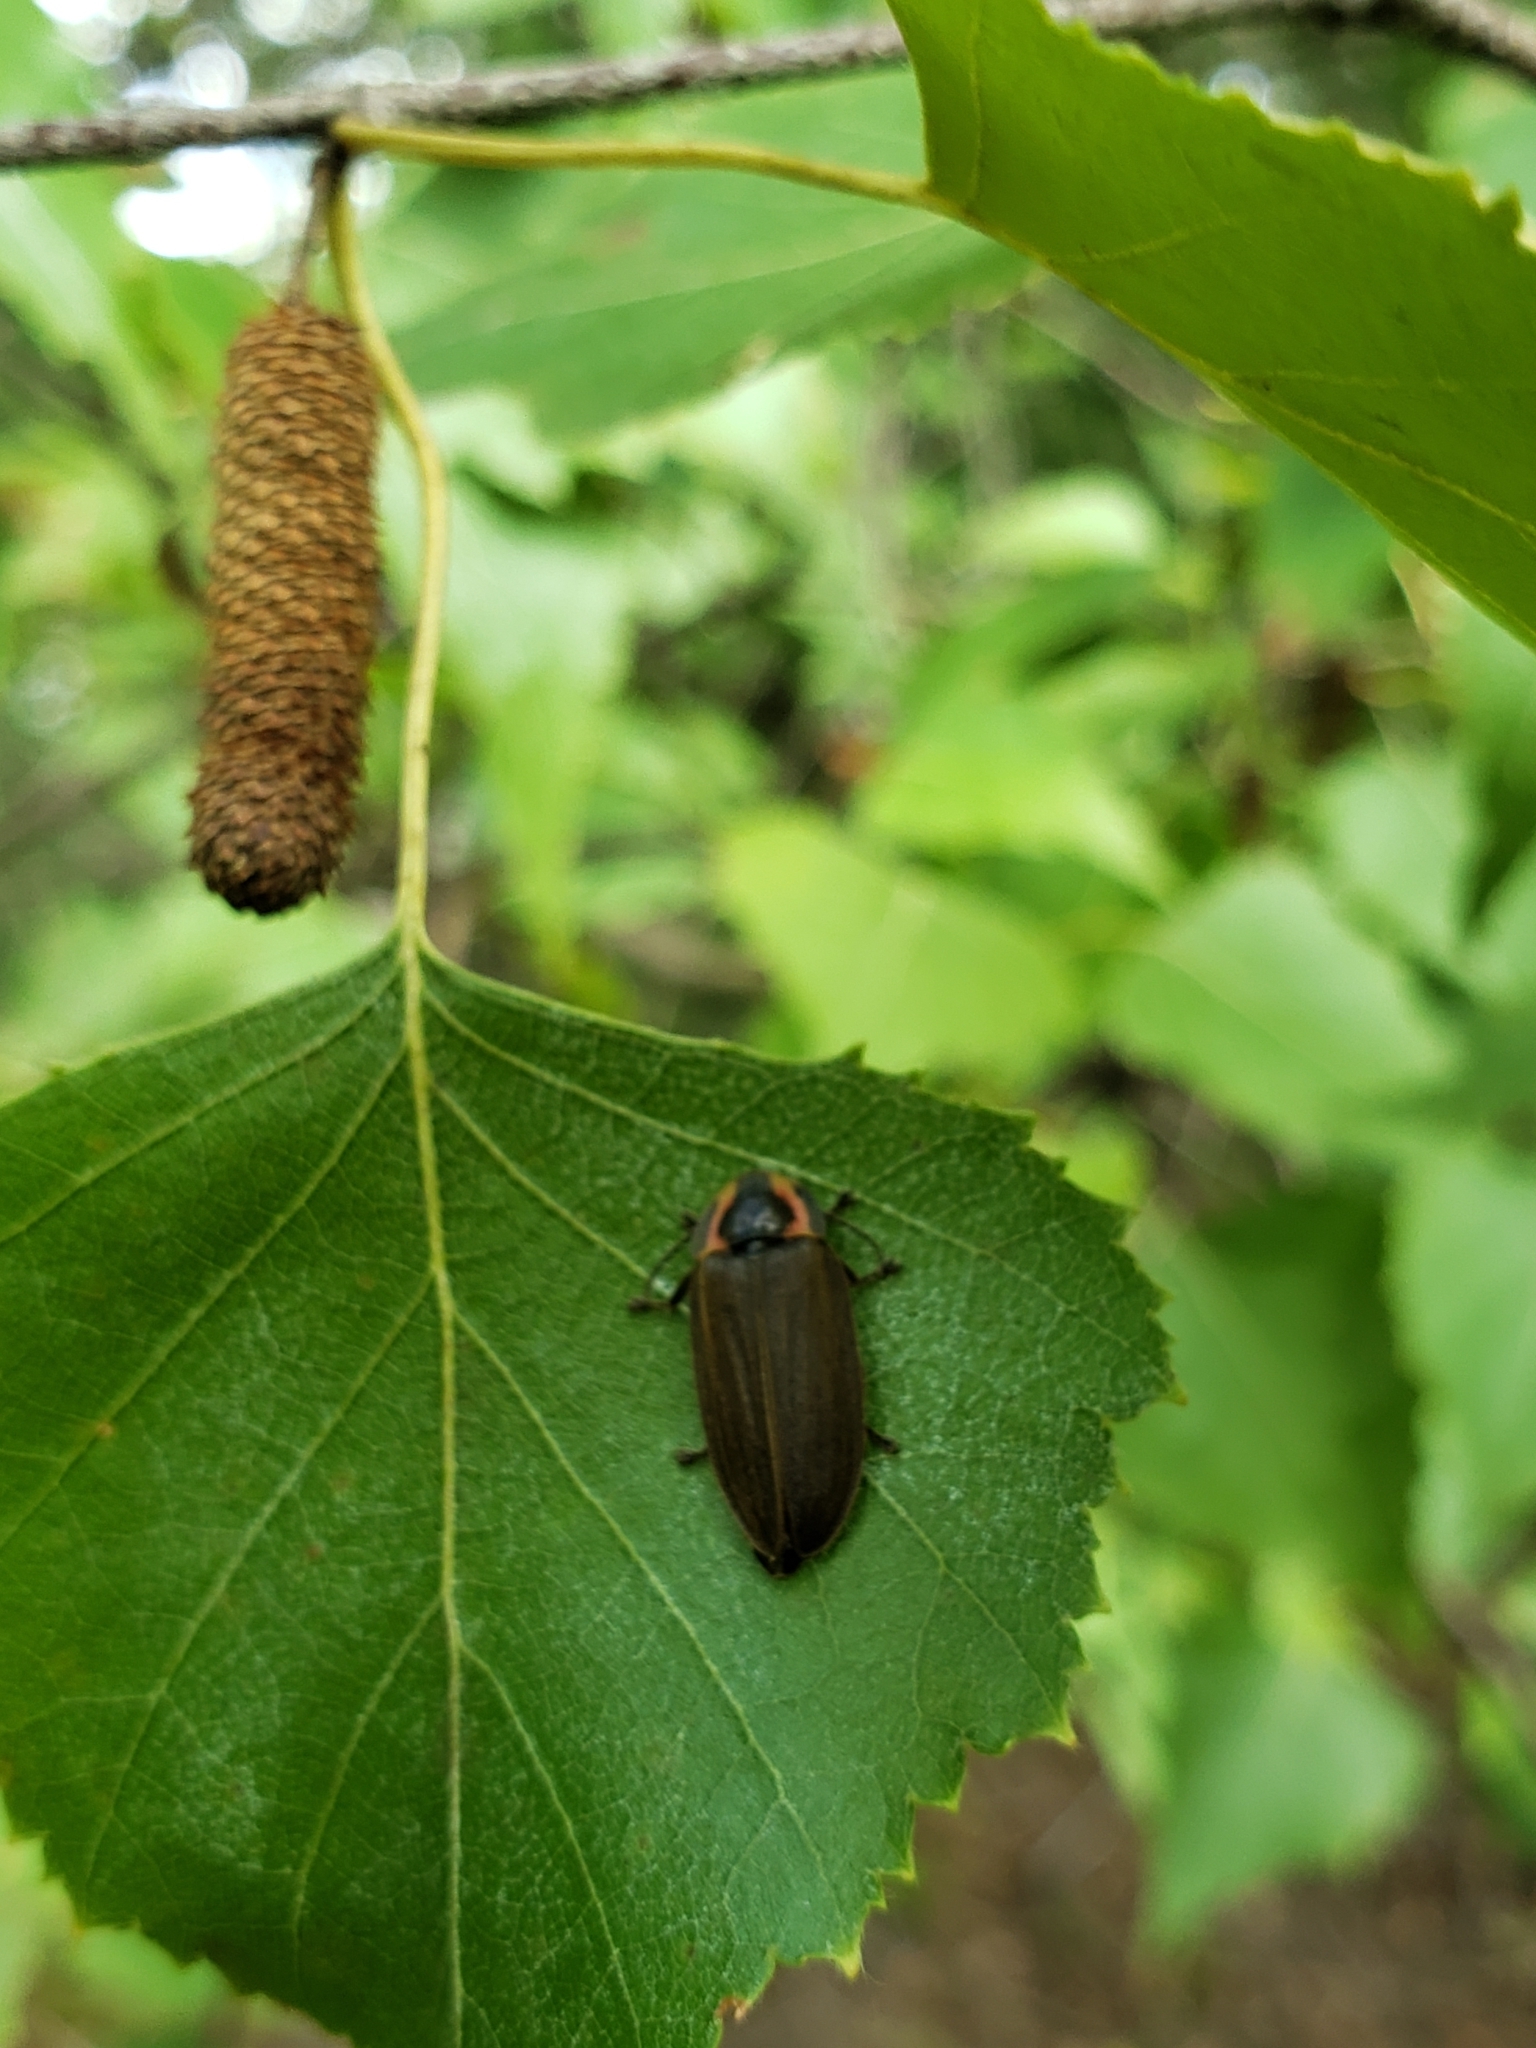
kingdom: Animalia
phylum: Arthropoda
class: Insecta
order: Coleoptera
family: Lampyridae
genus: Photinus
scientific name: Photinus corrusca
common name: Winter firefly
